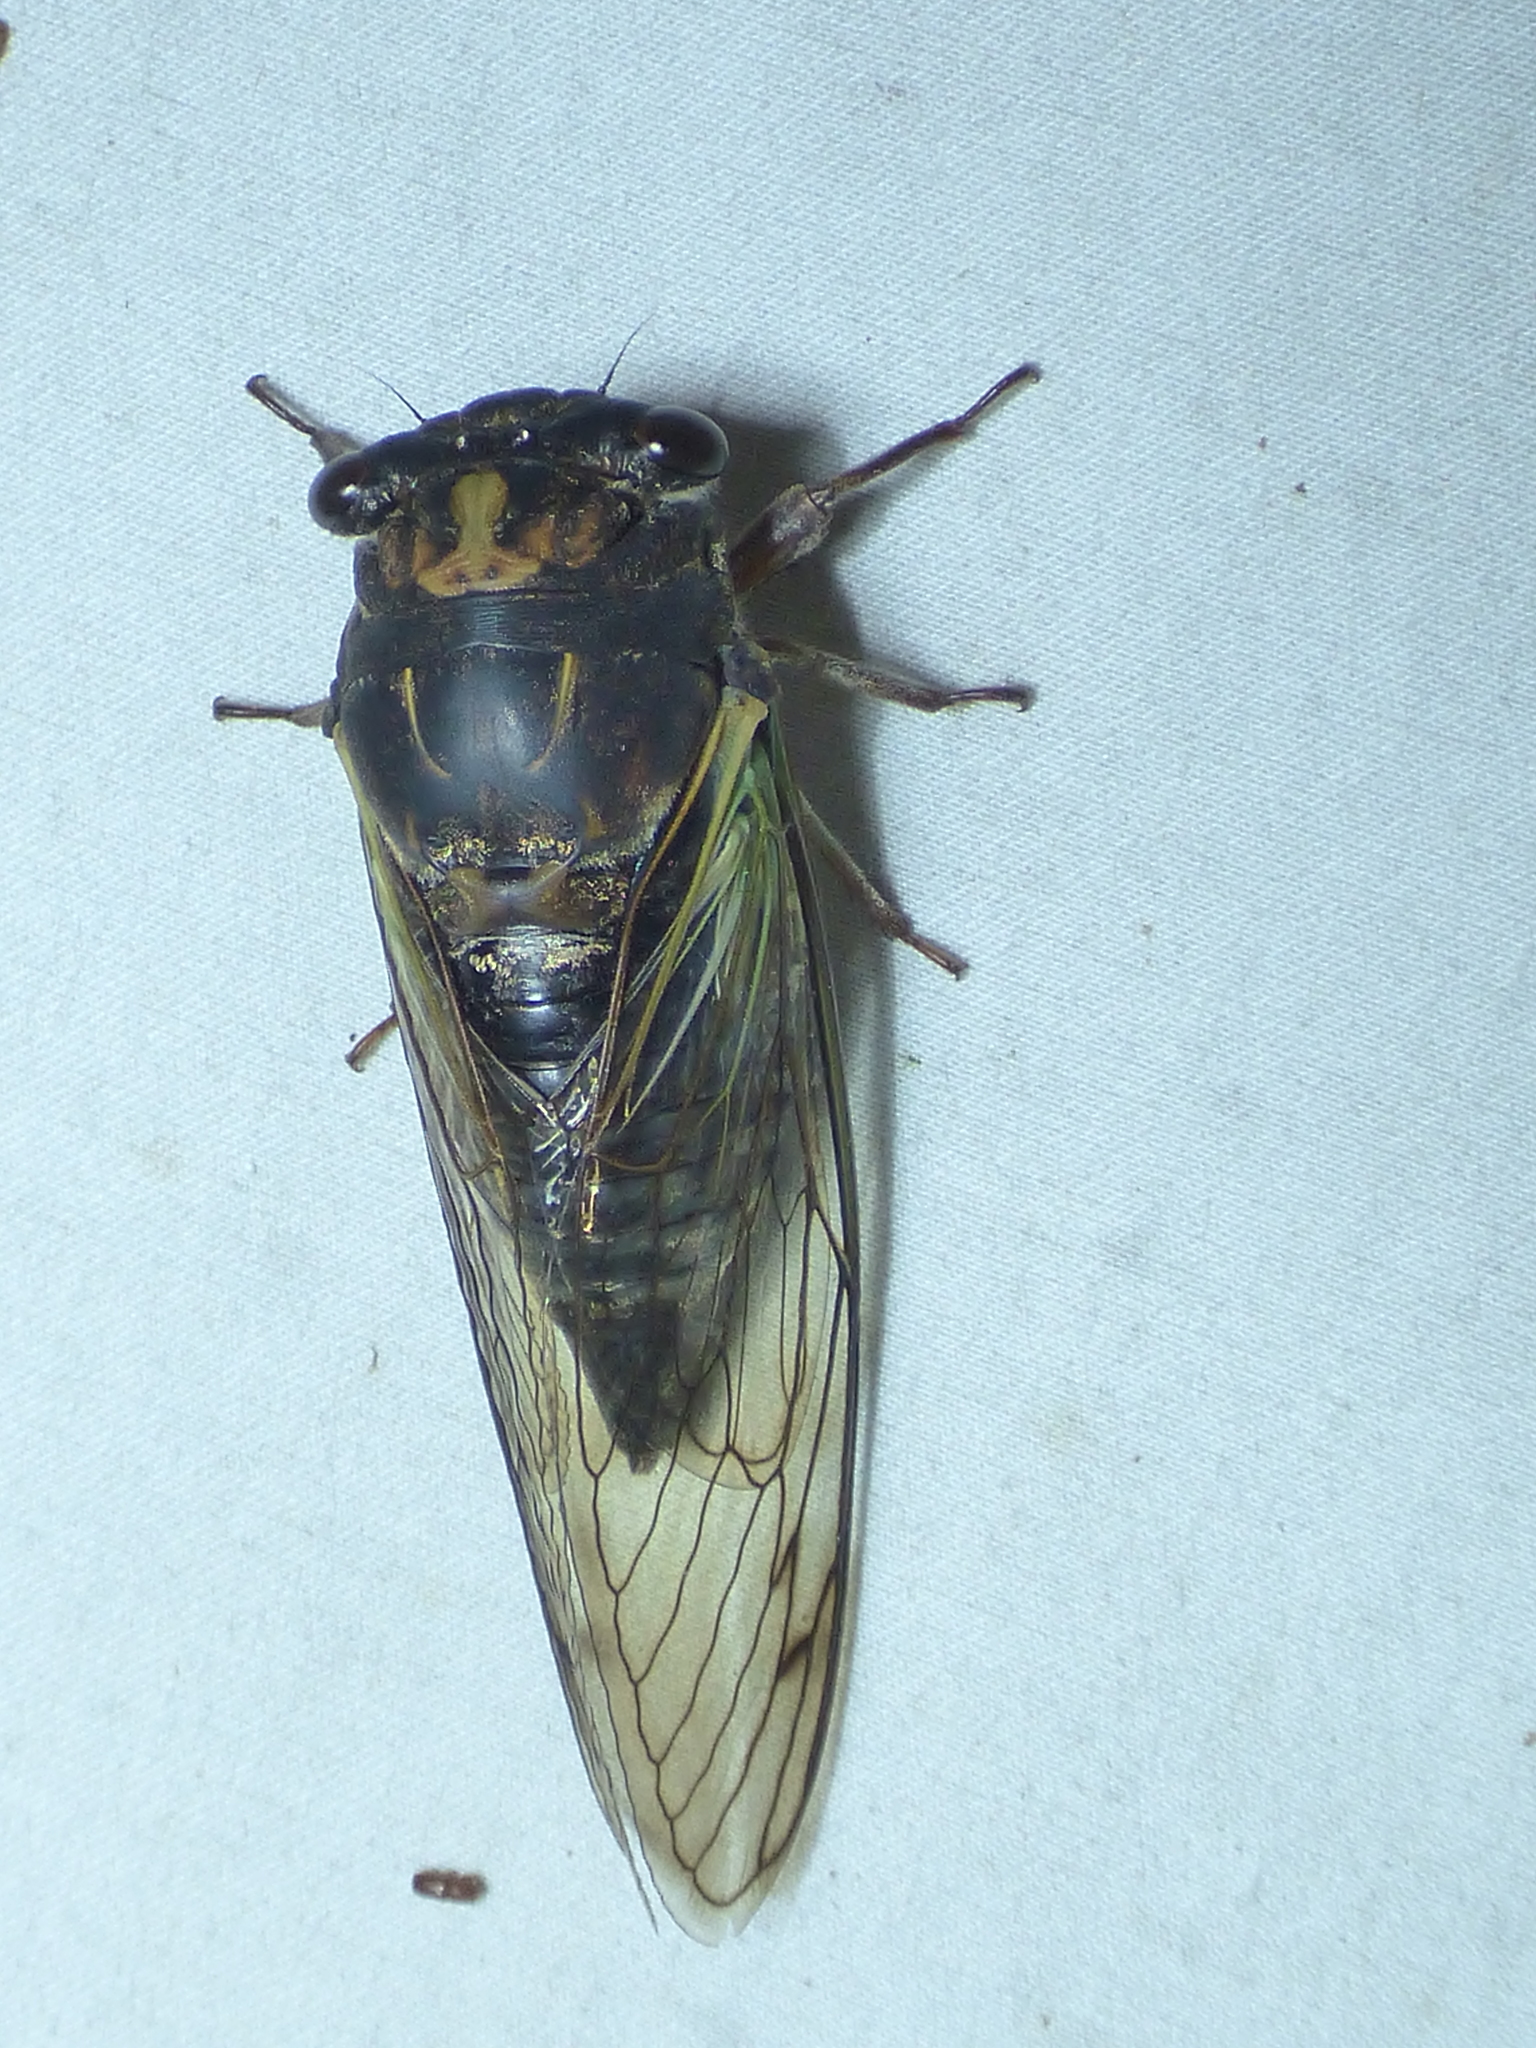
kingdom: Animalia
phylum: Arthropoda
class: Insecta
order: Hemiptera
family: Cicadidae
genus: Neotibicen
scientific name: Neotibicen lyricen
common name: Lyric cicada
